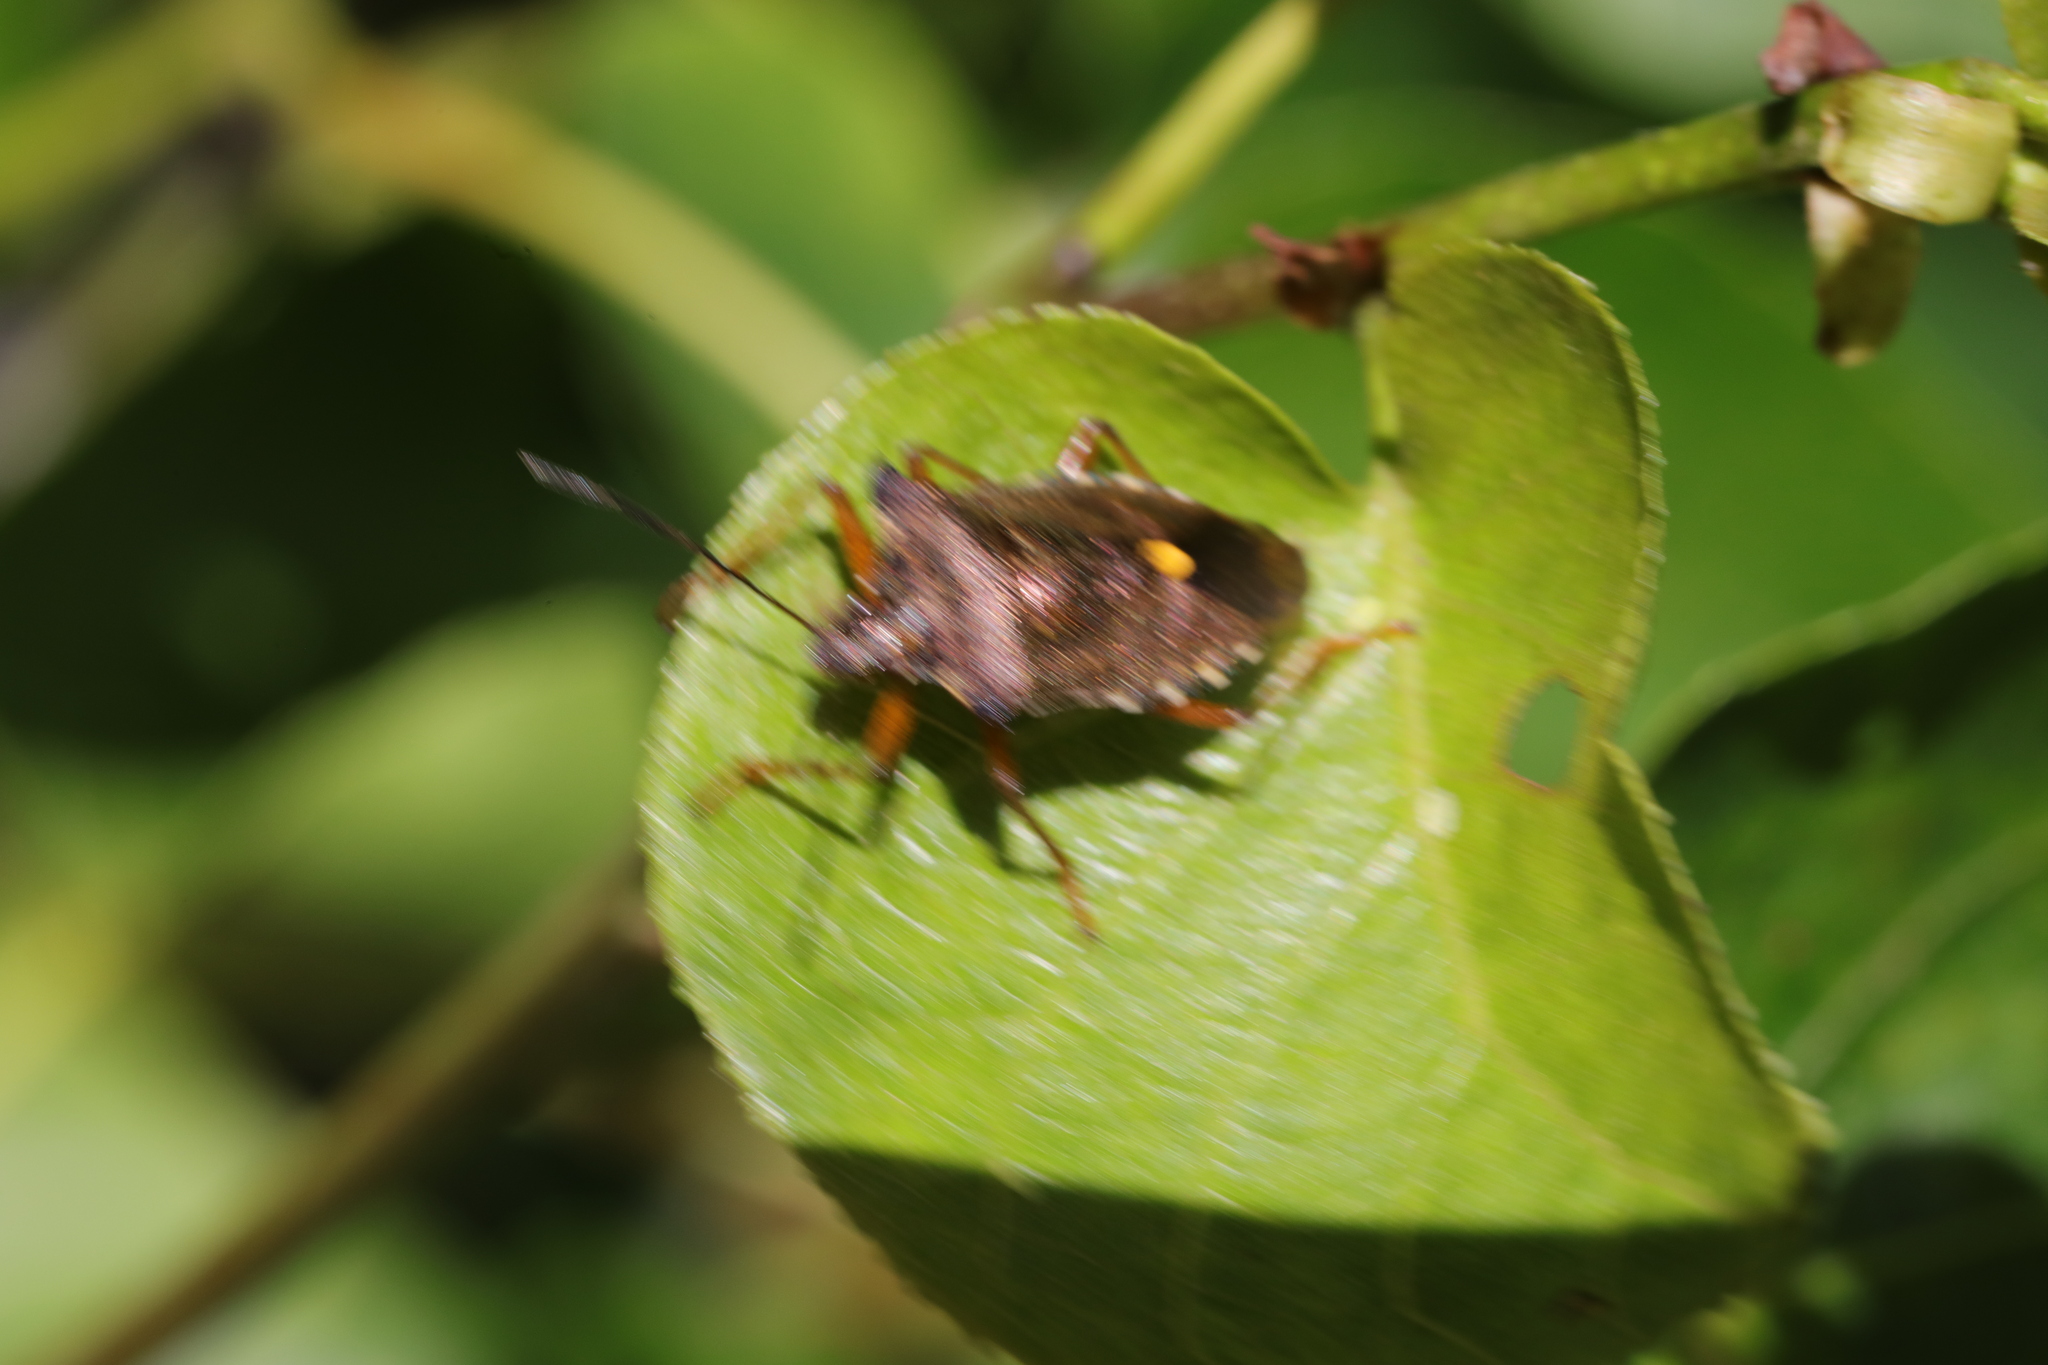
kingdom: Animalia
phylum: Arthropoda
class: Insecta
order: Hemiptera
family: Pentatomidae
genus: Pentatoma
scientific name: Pentatoma rufipes
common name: Forest bug
